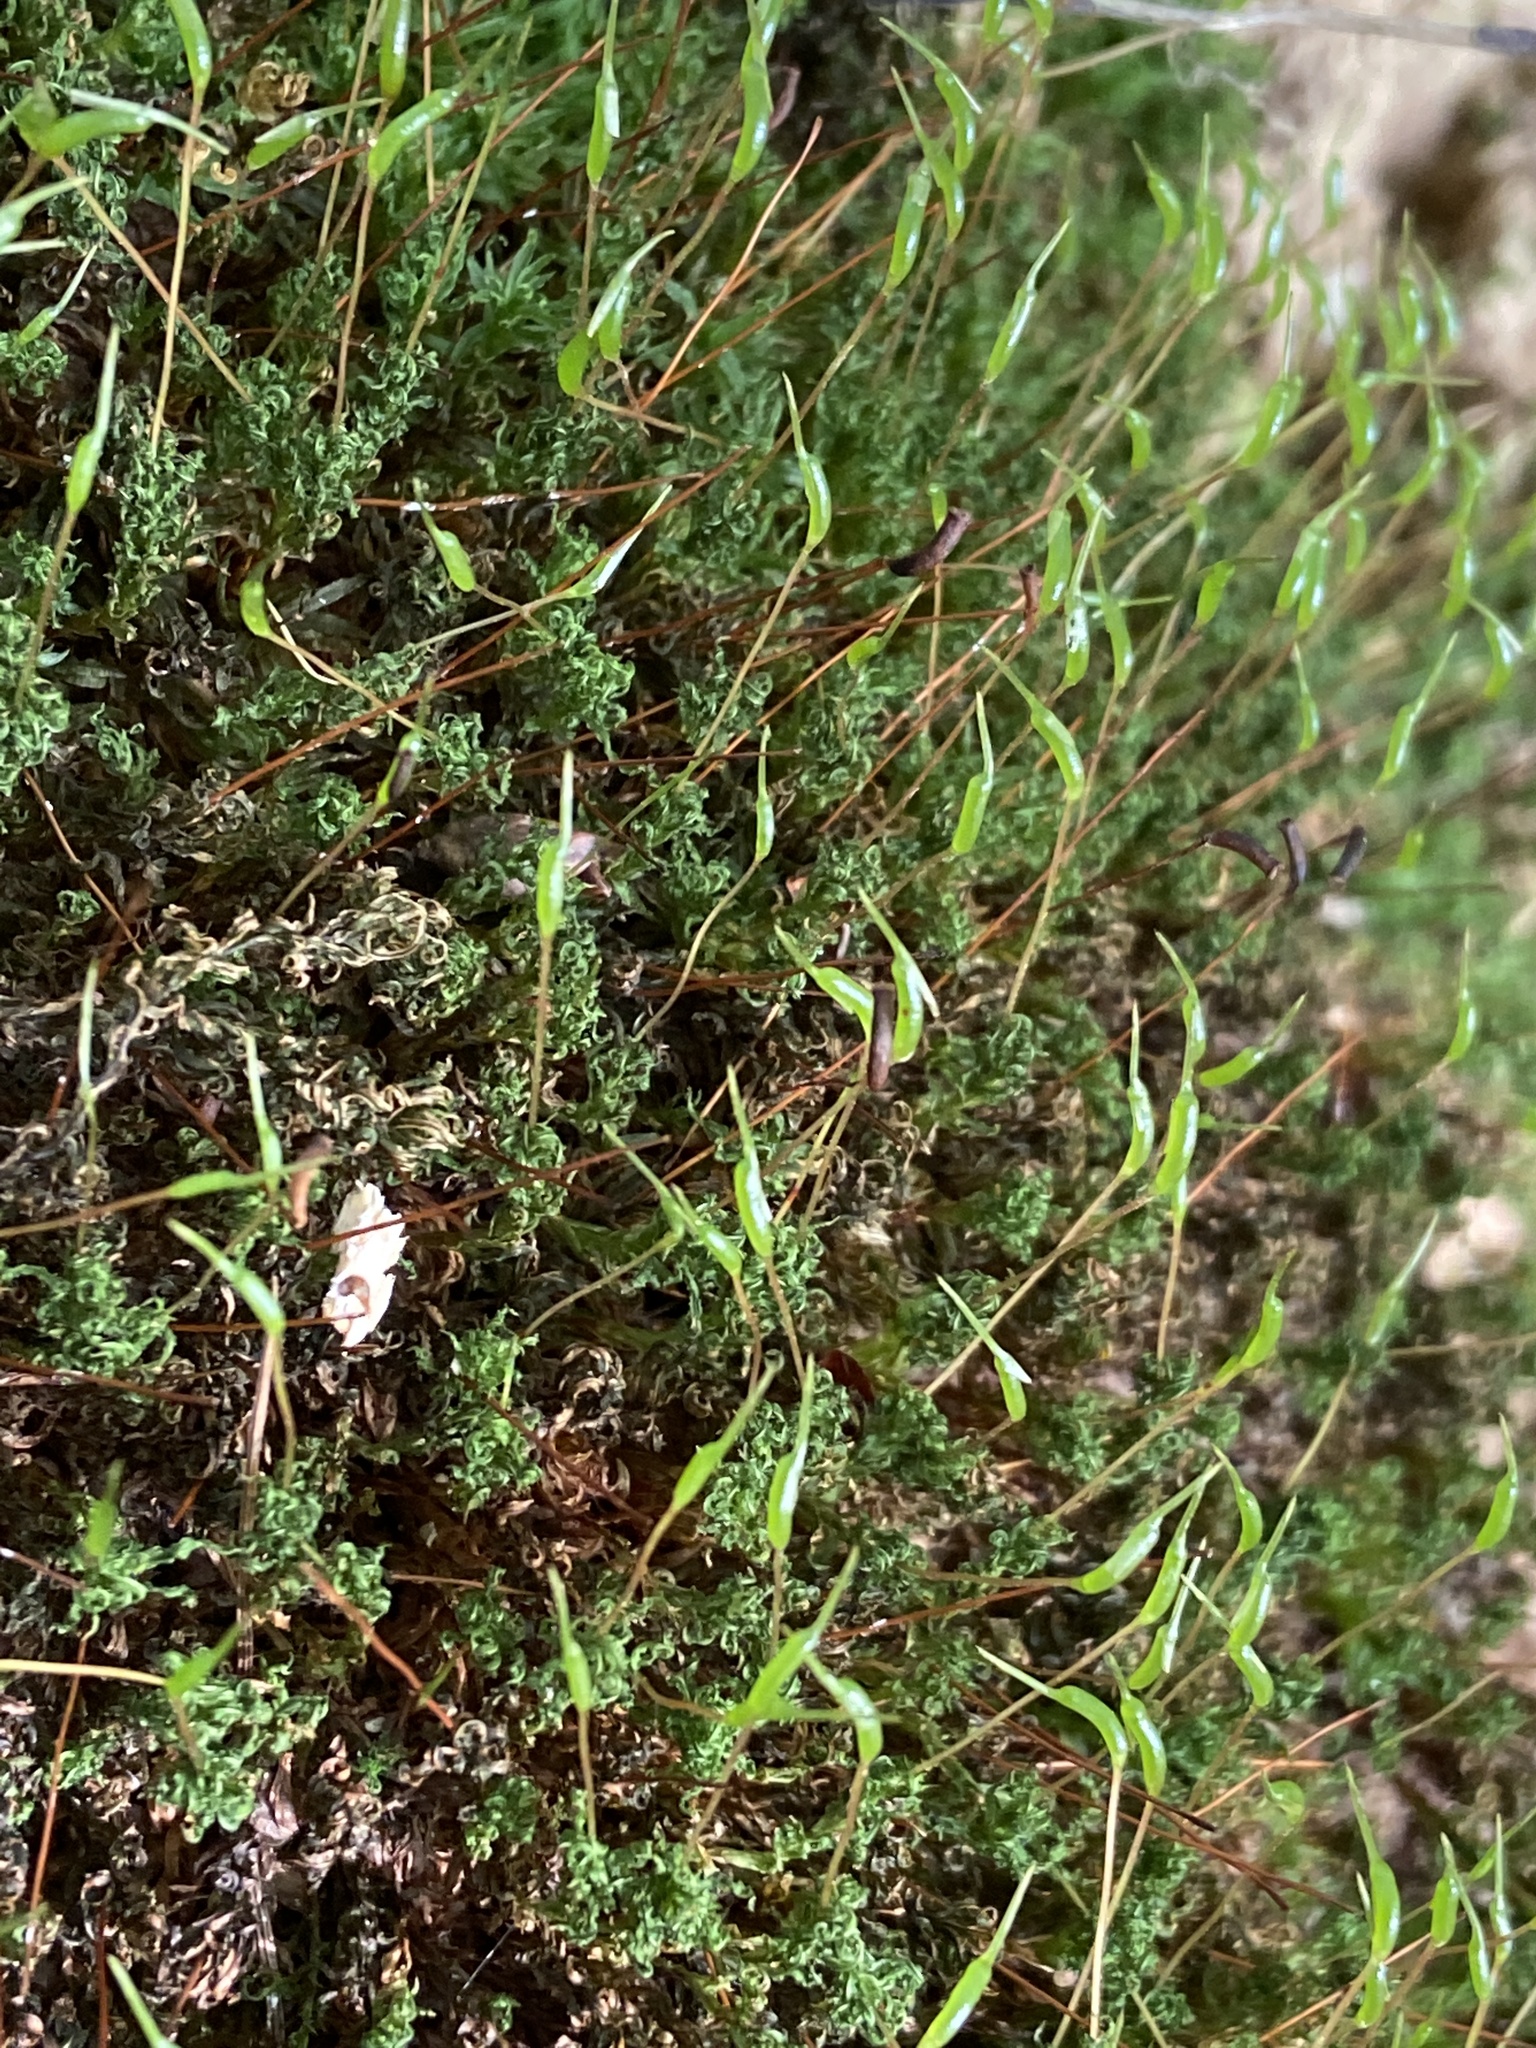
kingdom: Plantae
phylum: Bryophyta
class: Polytrichopsida
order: Polytrichales
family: Polytrichaceae
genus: Atrichum
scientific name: Atrichum undulatum
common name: Common smoothcap
